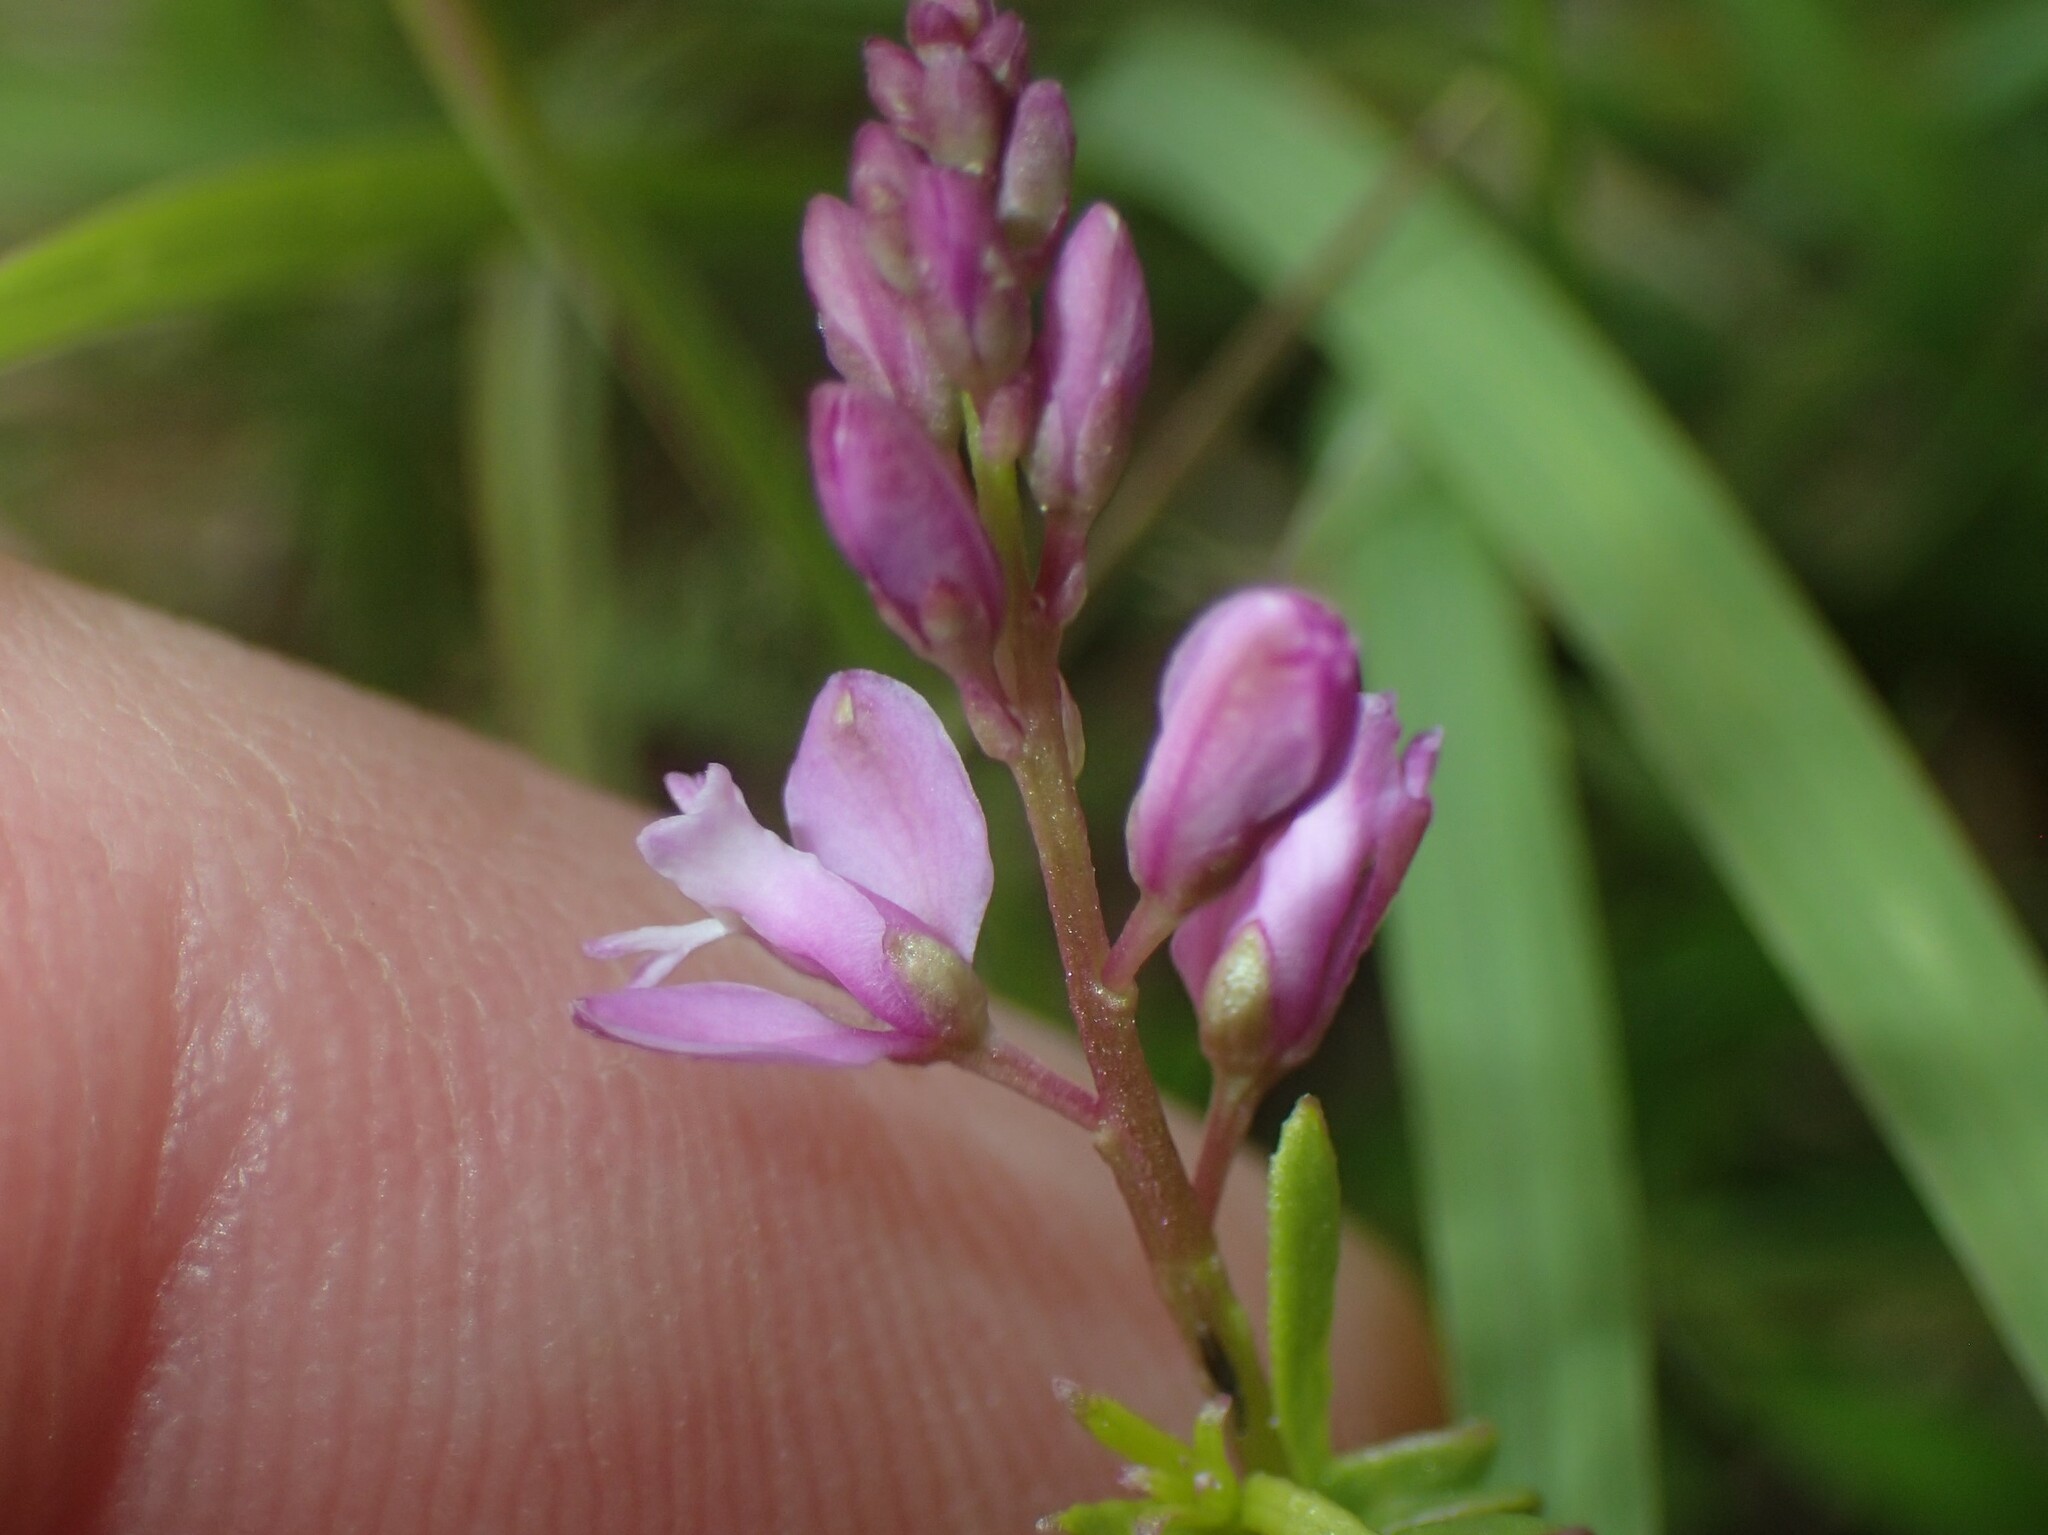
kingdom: Plantae
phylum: Tracheophyta
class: Magnoliopsida
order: Fabales
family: Polygalaceae
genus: Polygala
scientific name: Polygala polygama
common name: Bitter milkwort
